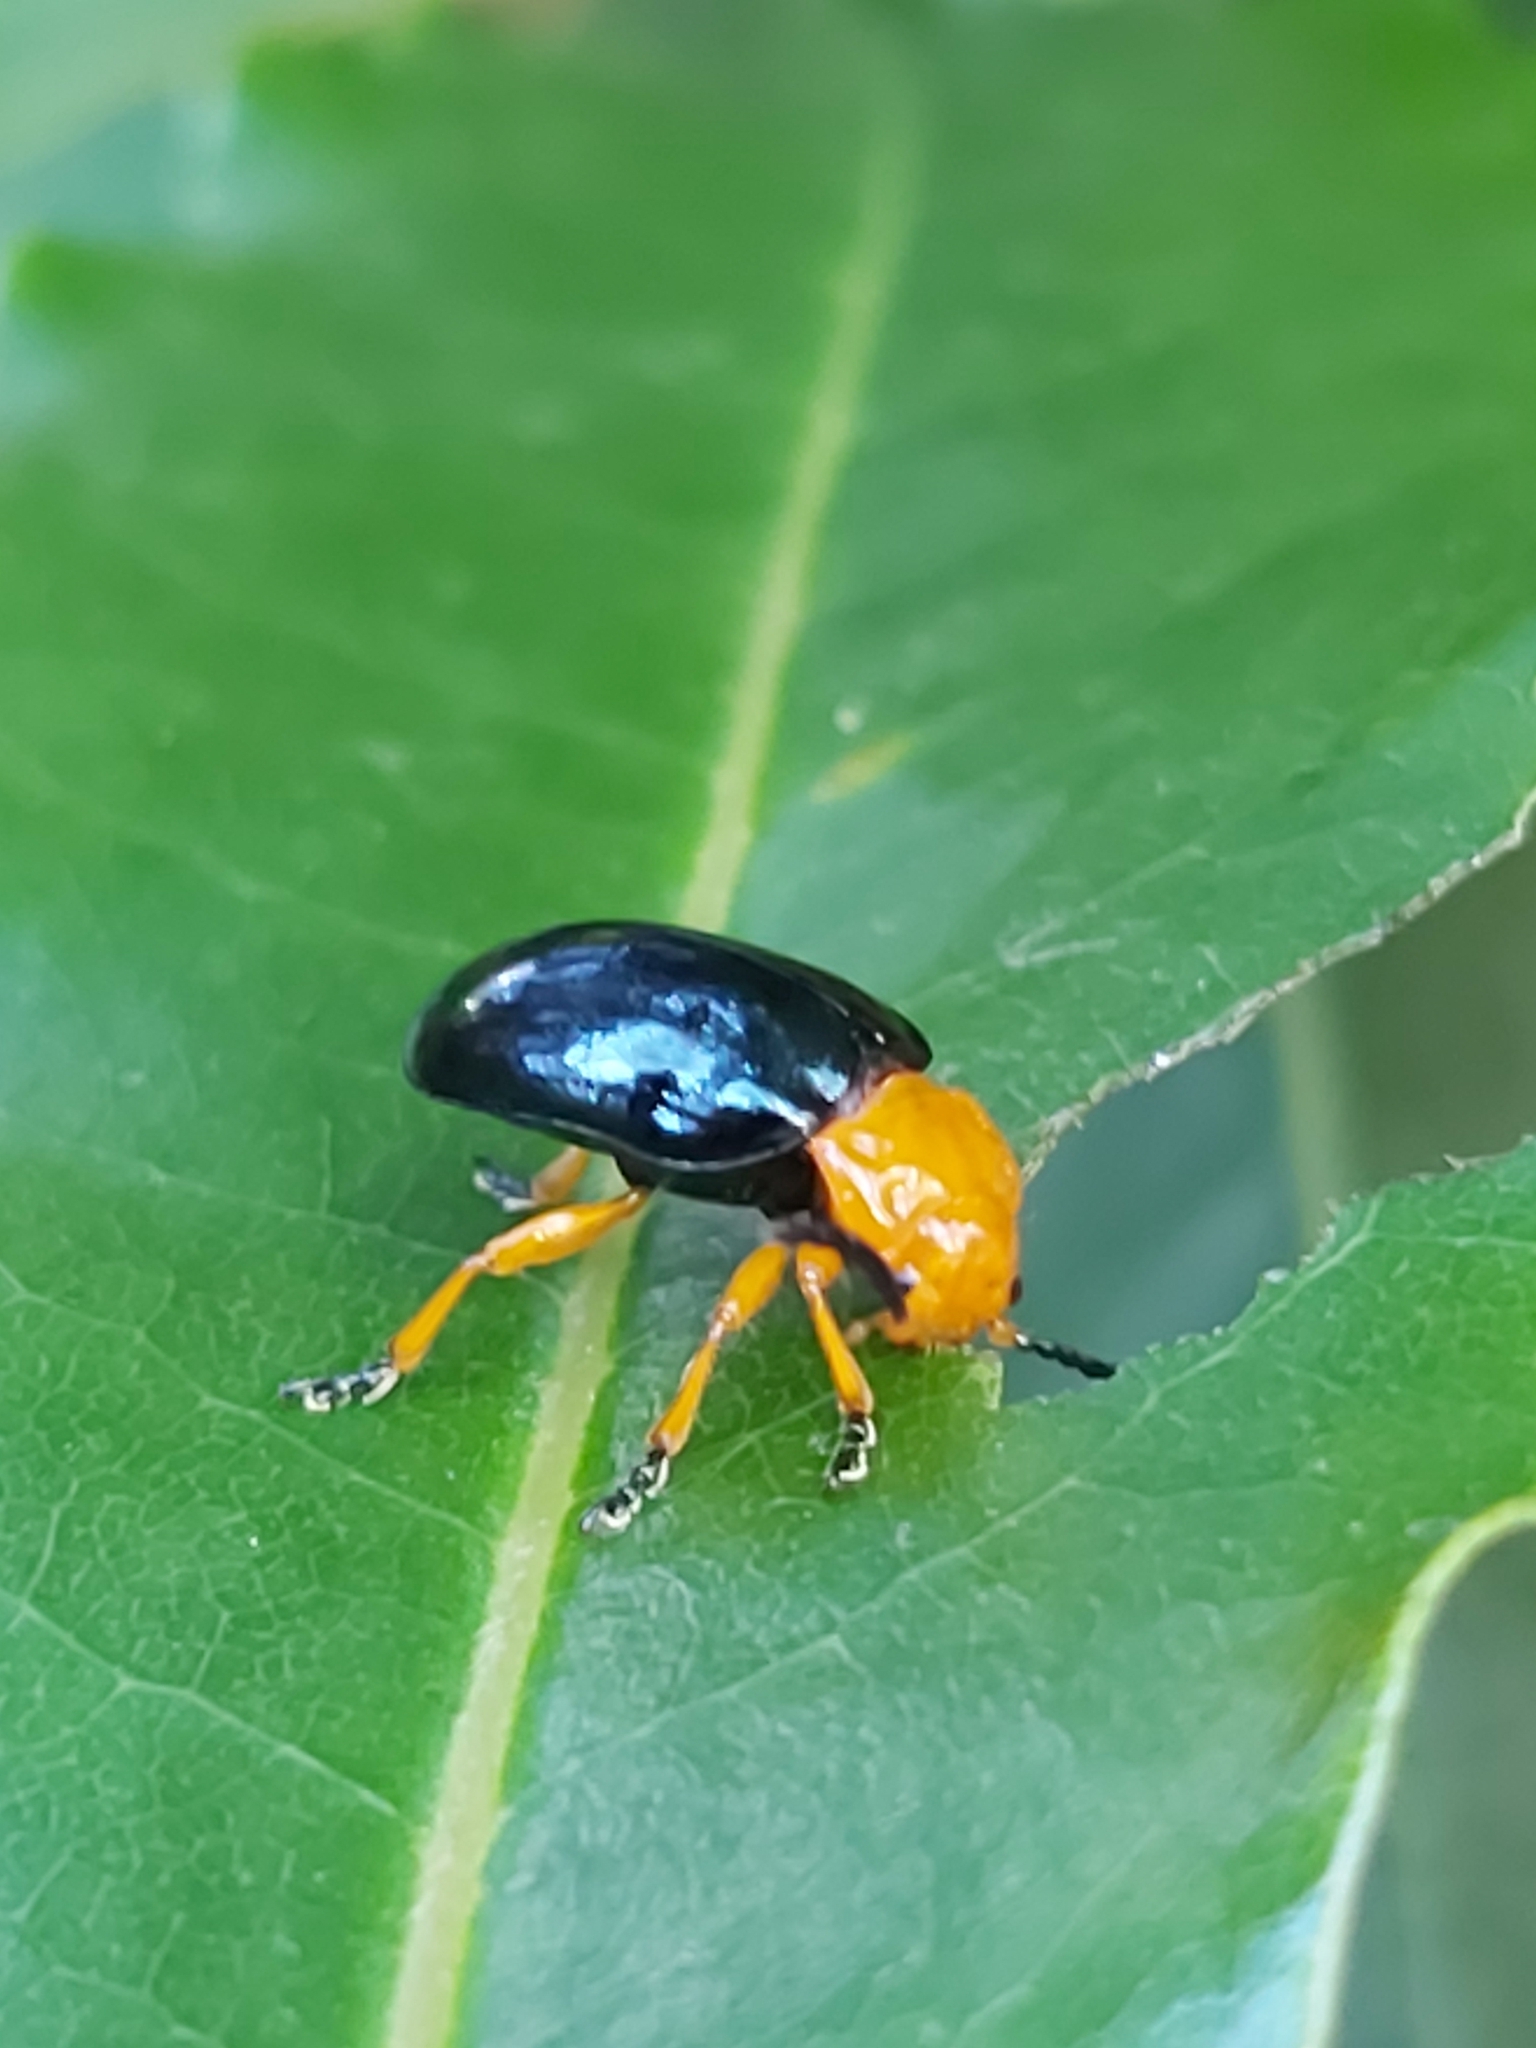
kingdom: Animalia
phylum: Arthropoda
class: Insecta
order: Coleoptera
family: Chrysomelidae
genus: Lamprolina
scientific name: Lamprolina
